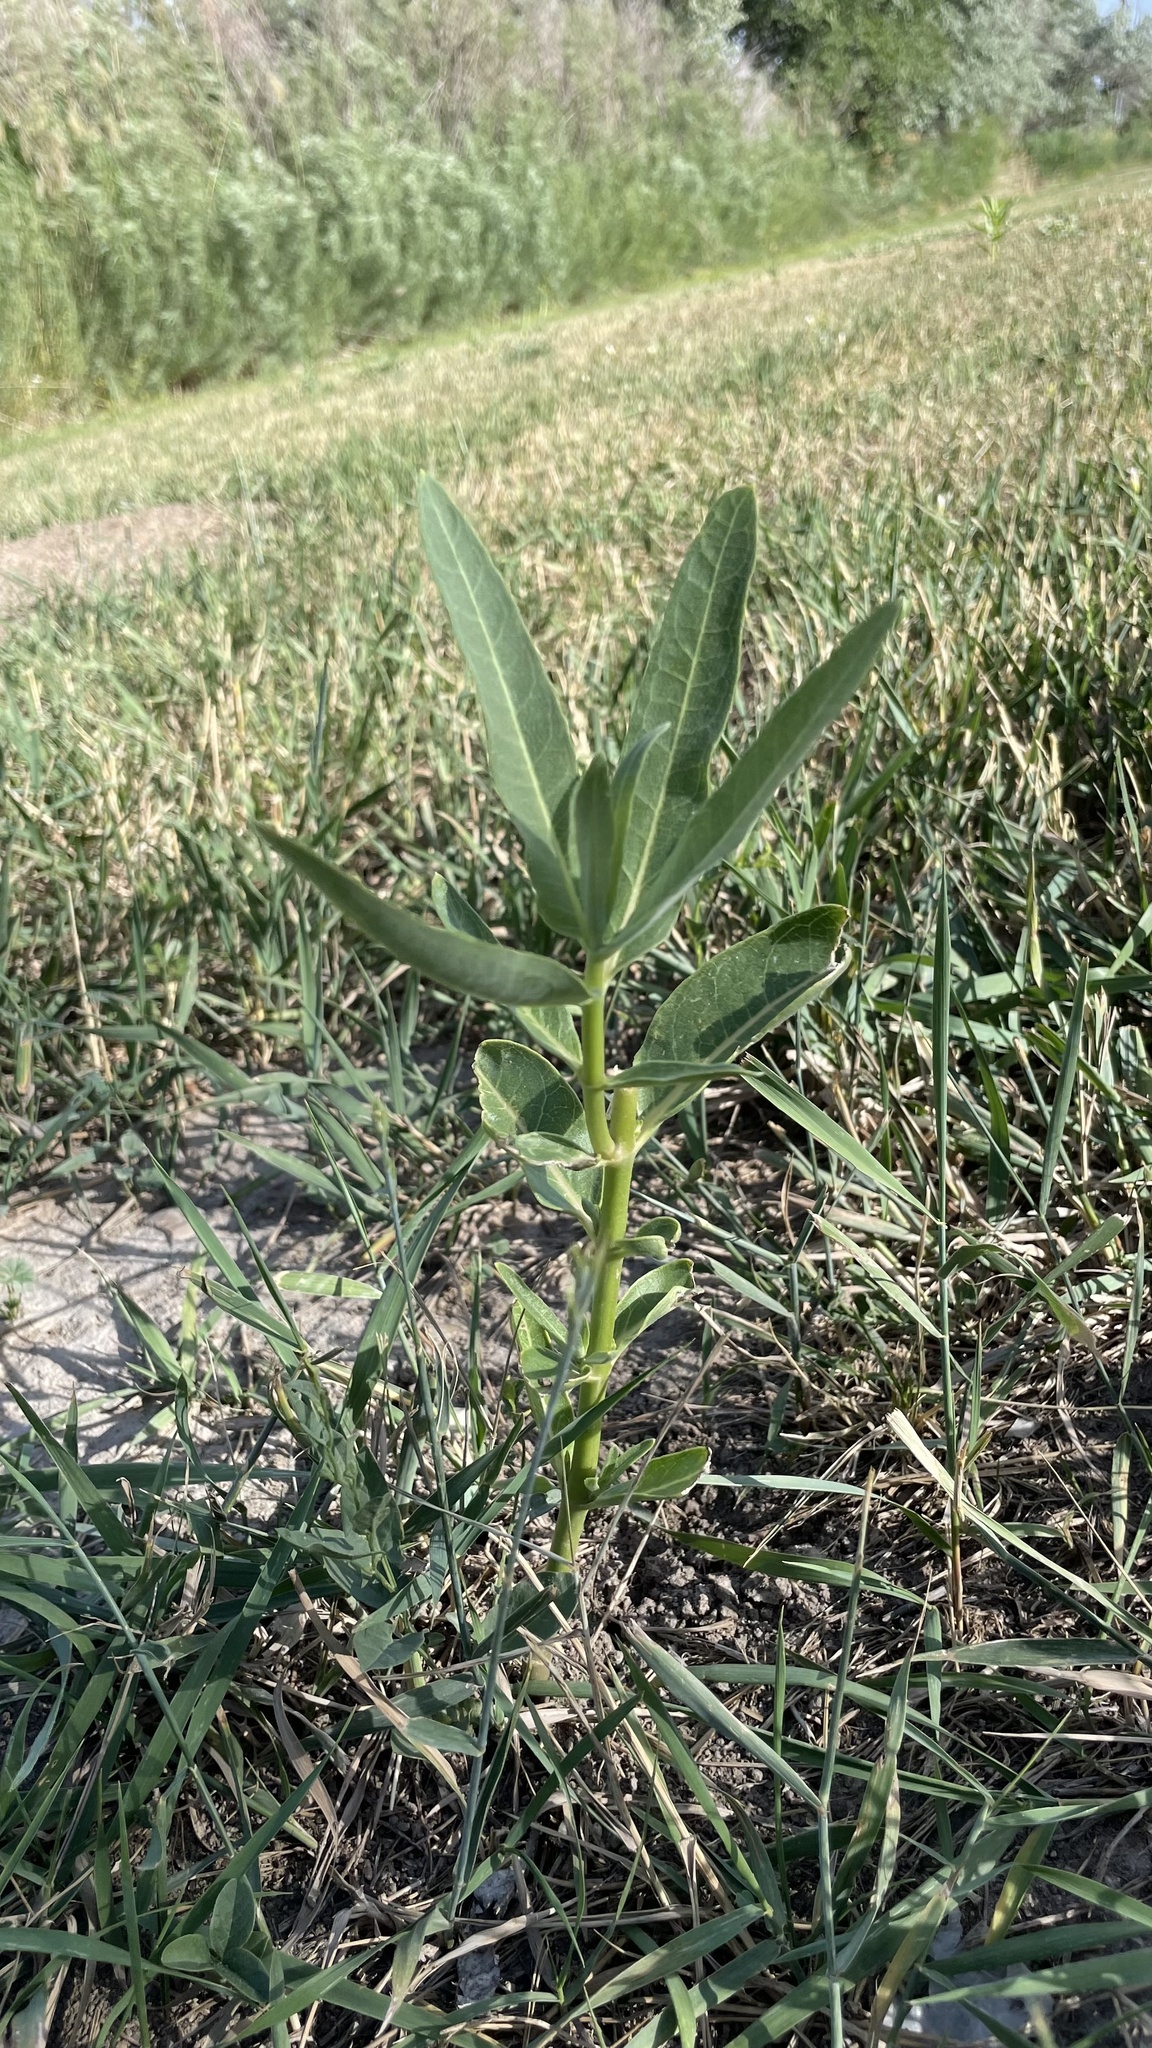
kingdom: Plantae
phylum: Tracheophyta
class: Magnoliopsida
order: Gentianales
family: Apocynaceae
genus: Asclepias
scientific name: Asclepias speciosa
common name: Showy milkweed
